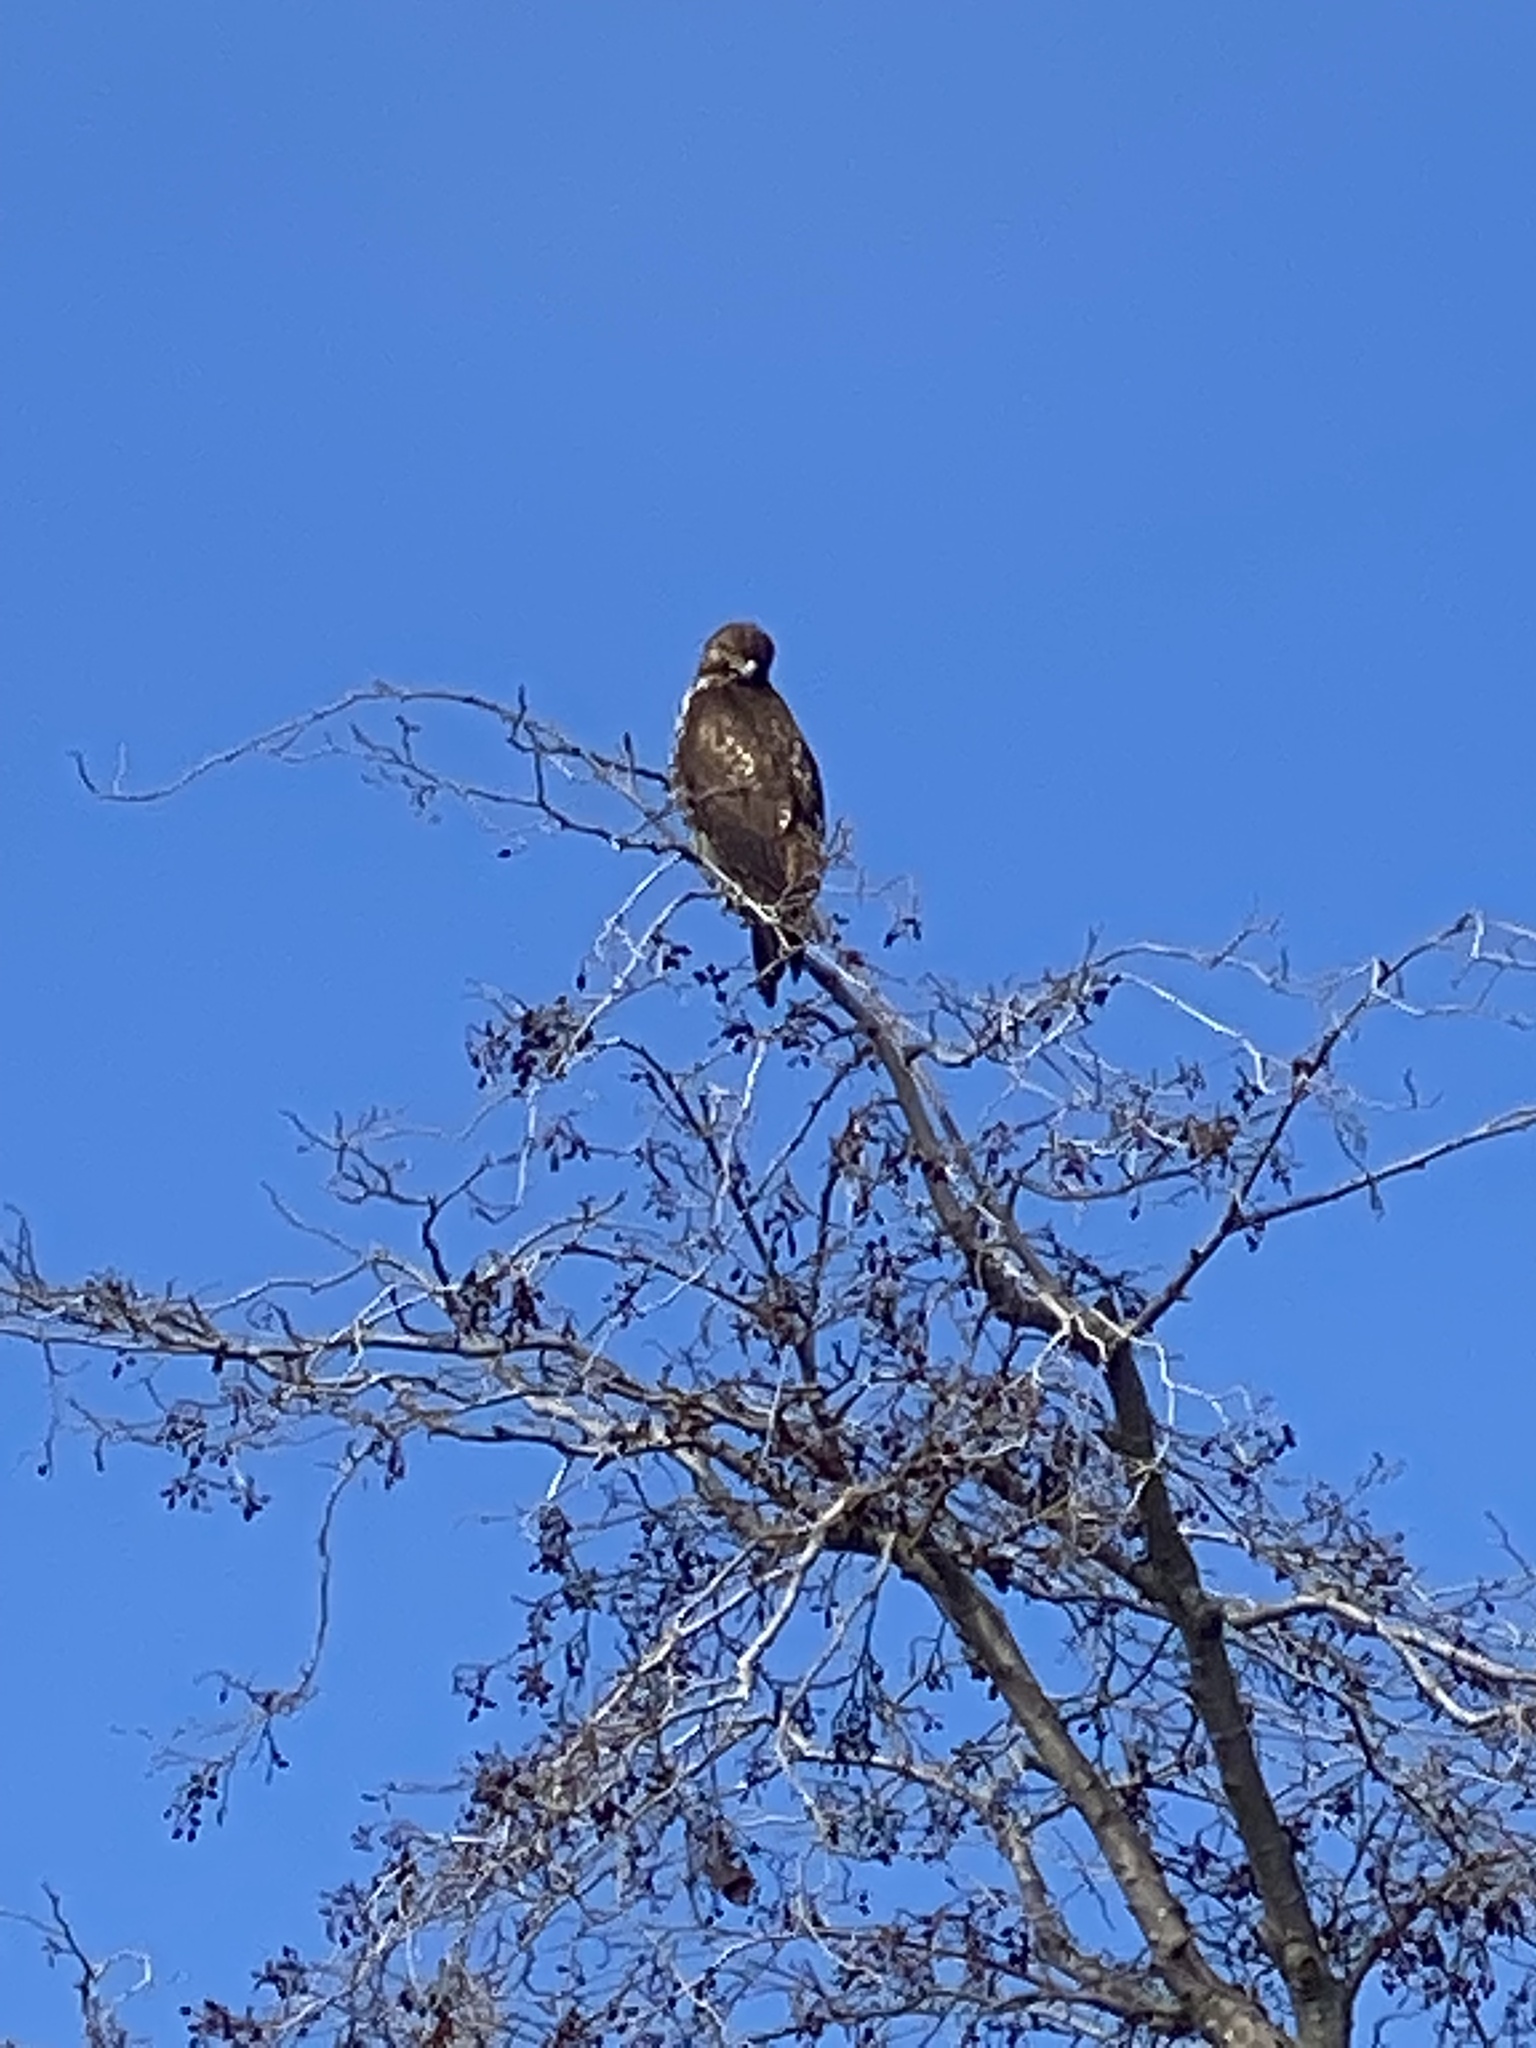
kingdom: Animalia
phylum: Chordata
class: Aves
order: Accipitriformes
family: Accipitridae
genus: Buteo
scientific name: Buteo jamaicensis
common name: Red-tailed hawk
